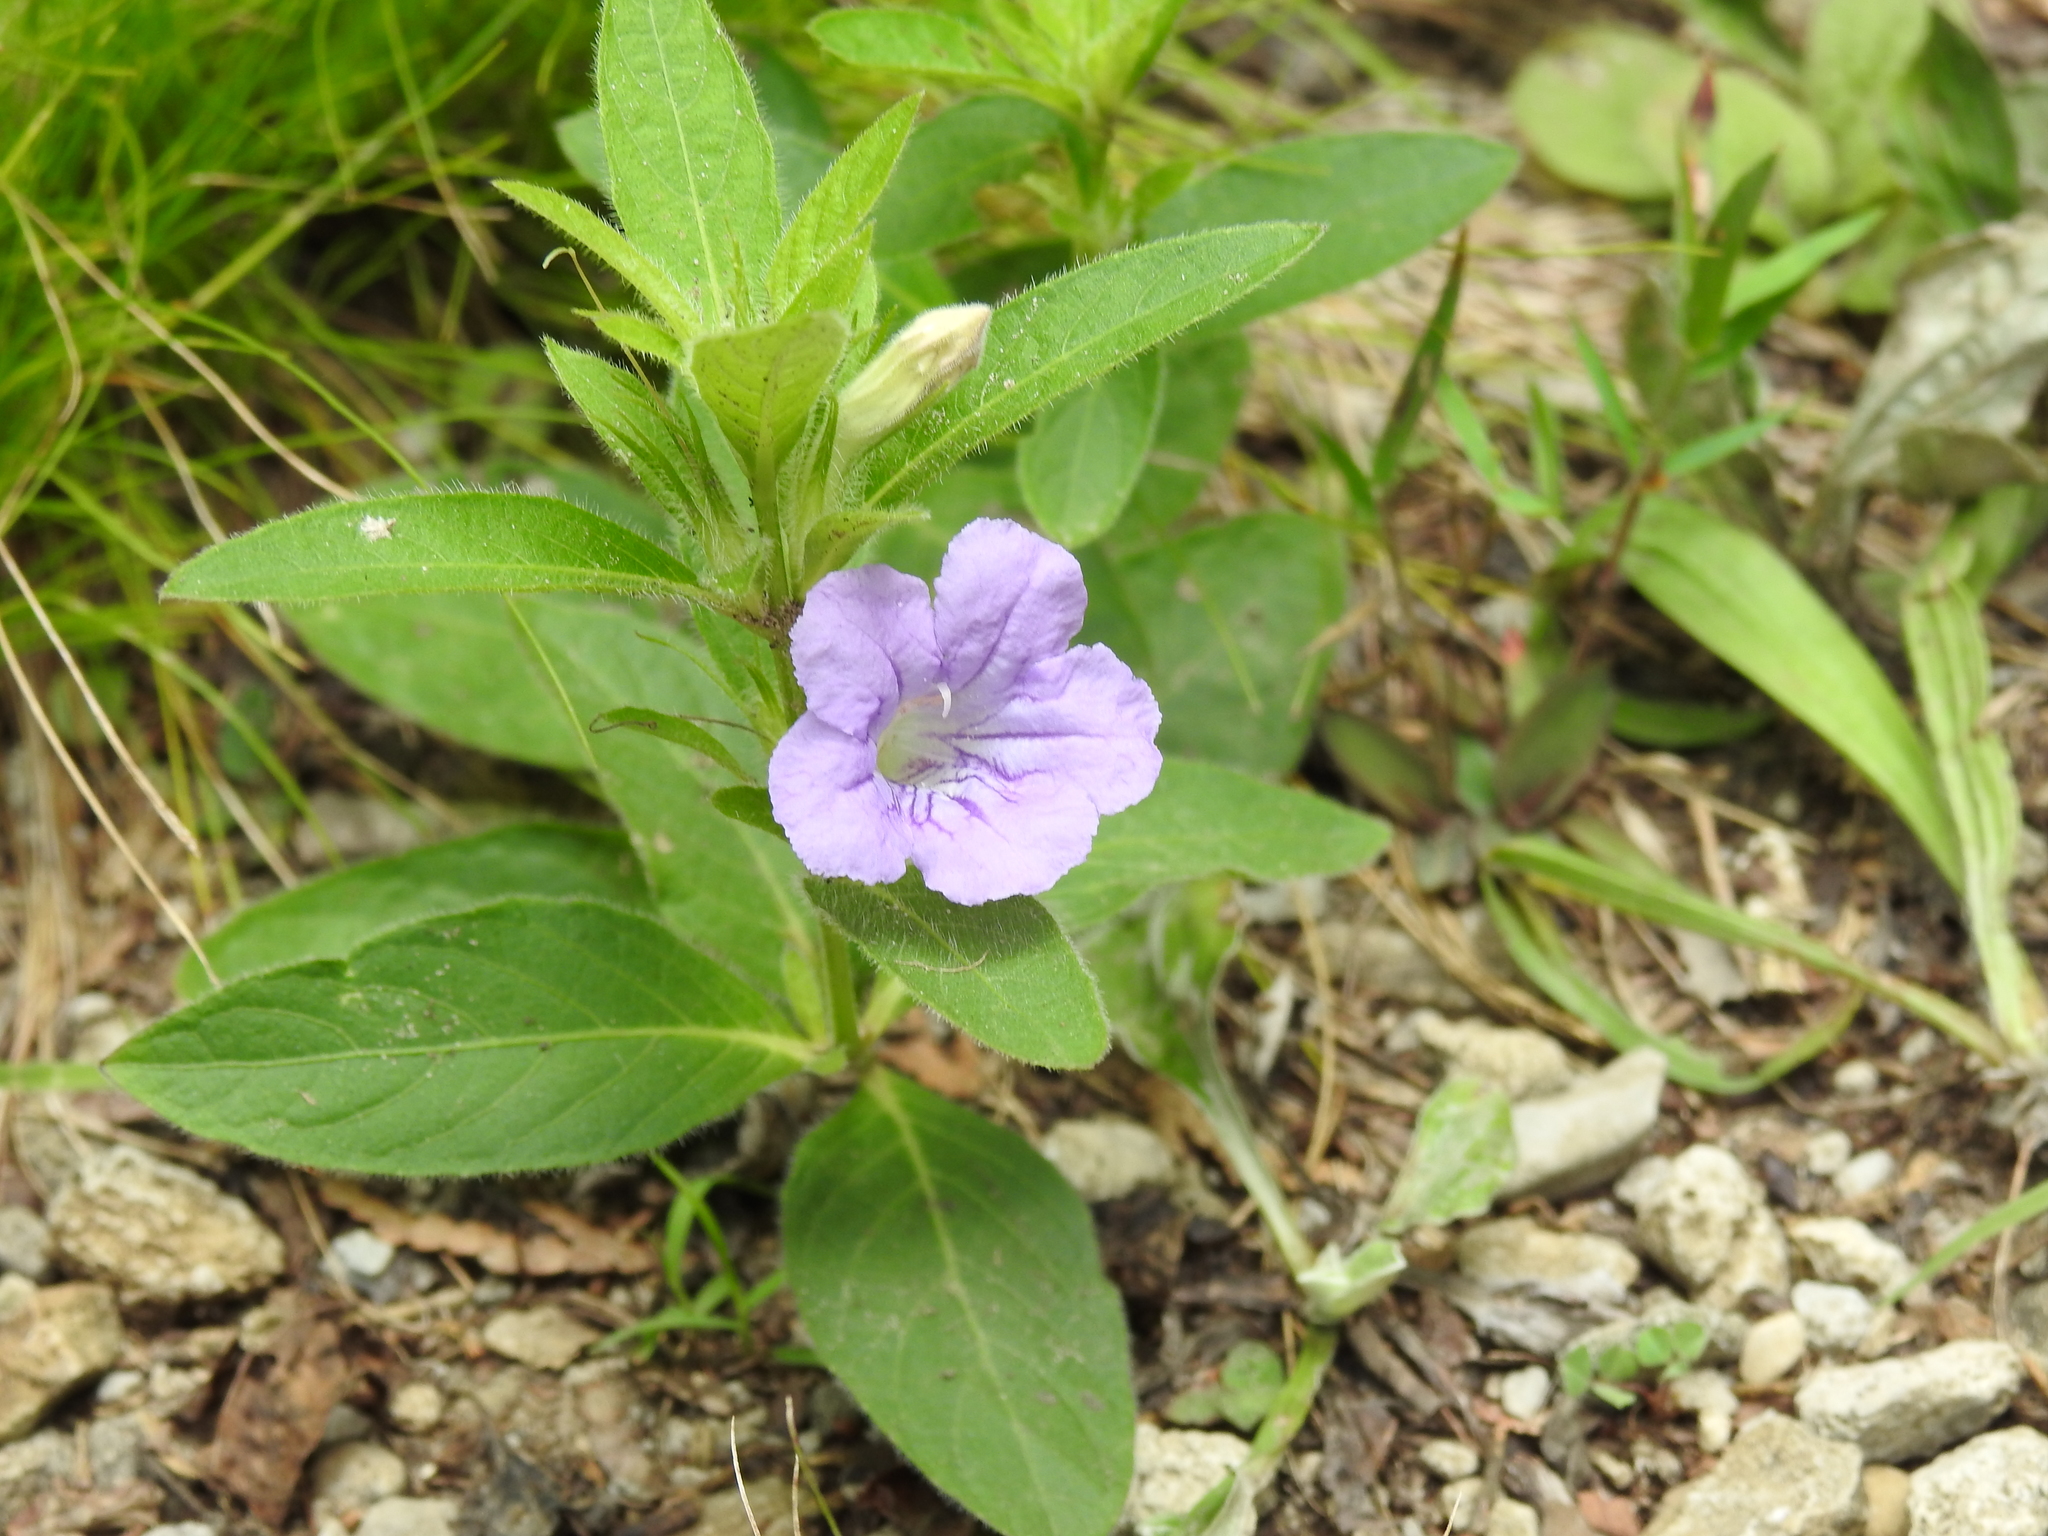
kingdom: Plantae
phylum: Tracheophyta
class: Magnoliopsida
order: Lamiales
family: Acanthaceae
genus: Ruellia
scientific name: Ruellia humilis
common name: Fringe-leaf ruellia
